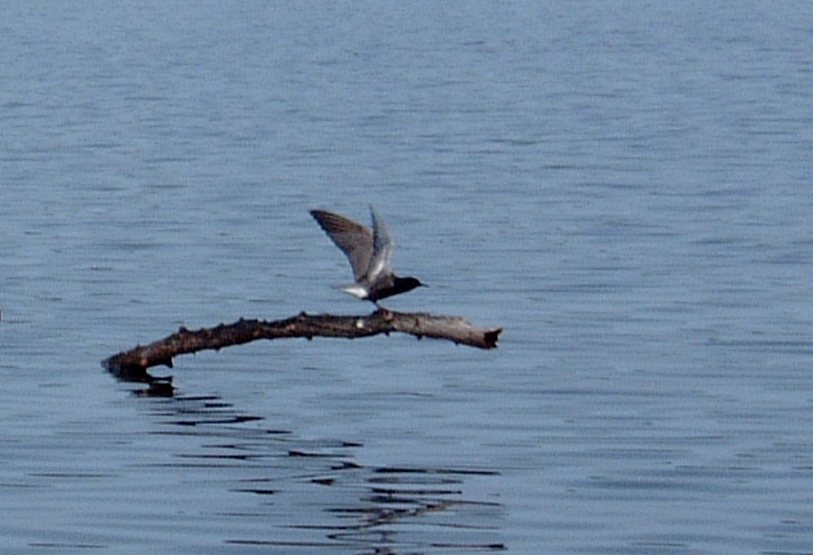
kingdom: Animalia
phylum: Chordata
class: Aves
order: Charadriiformes
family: Laridae
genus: Chlidonias
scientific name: Chlidonias niger
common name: Black tern
